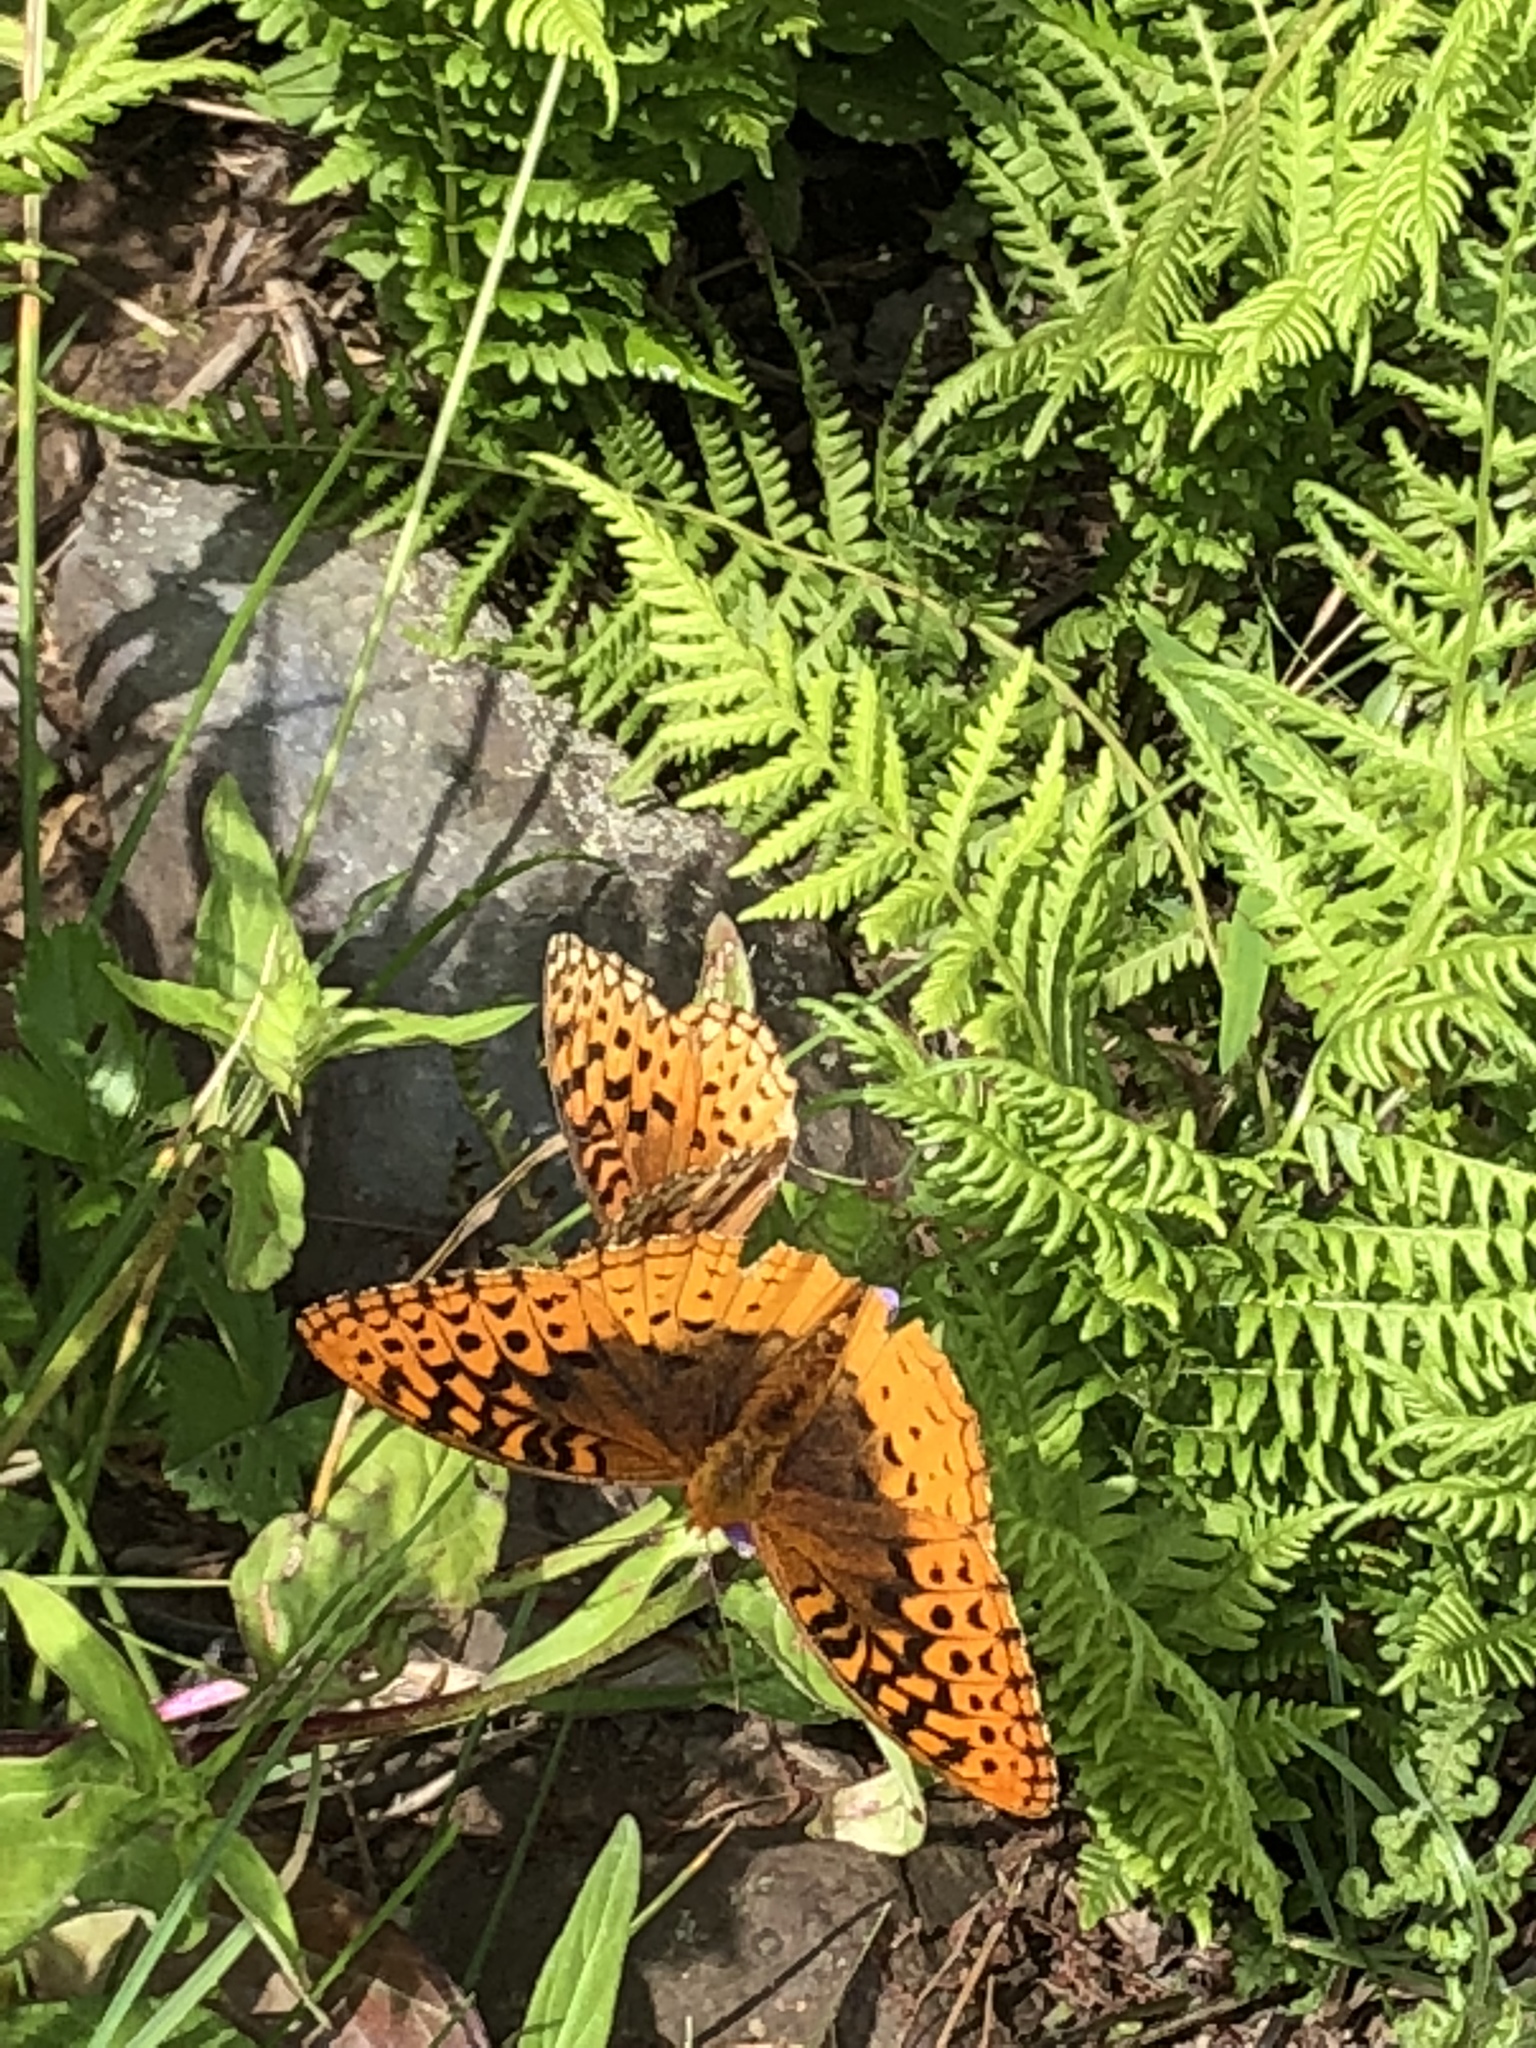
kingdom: Animalia
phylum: Arthropoda
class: Insecta
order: Lepidoptera
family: Nymphalidae
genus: Speyeria
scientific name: Speyeria cybele
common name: Great spangled fritillary
